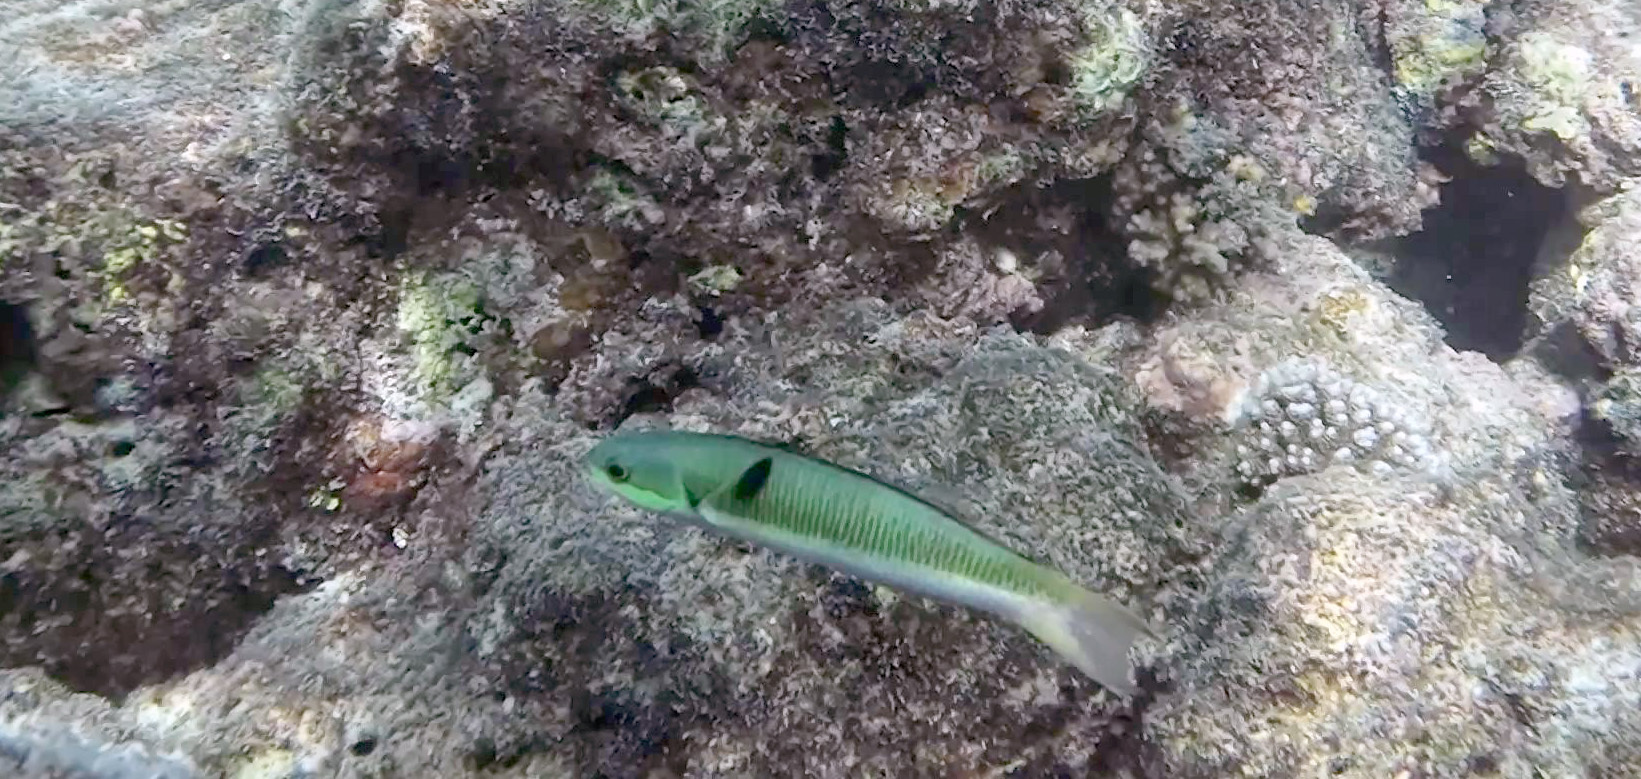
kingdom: Animalia
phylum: Chordata
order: Perciformes
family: Labridae
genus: Thalassoma
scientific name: Thalassoma amblycephalum
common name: Bluehead wrasse
